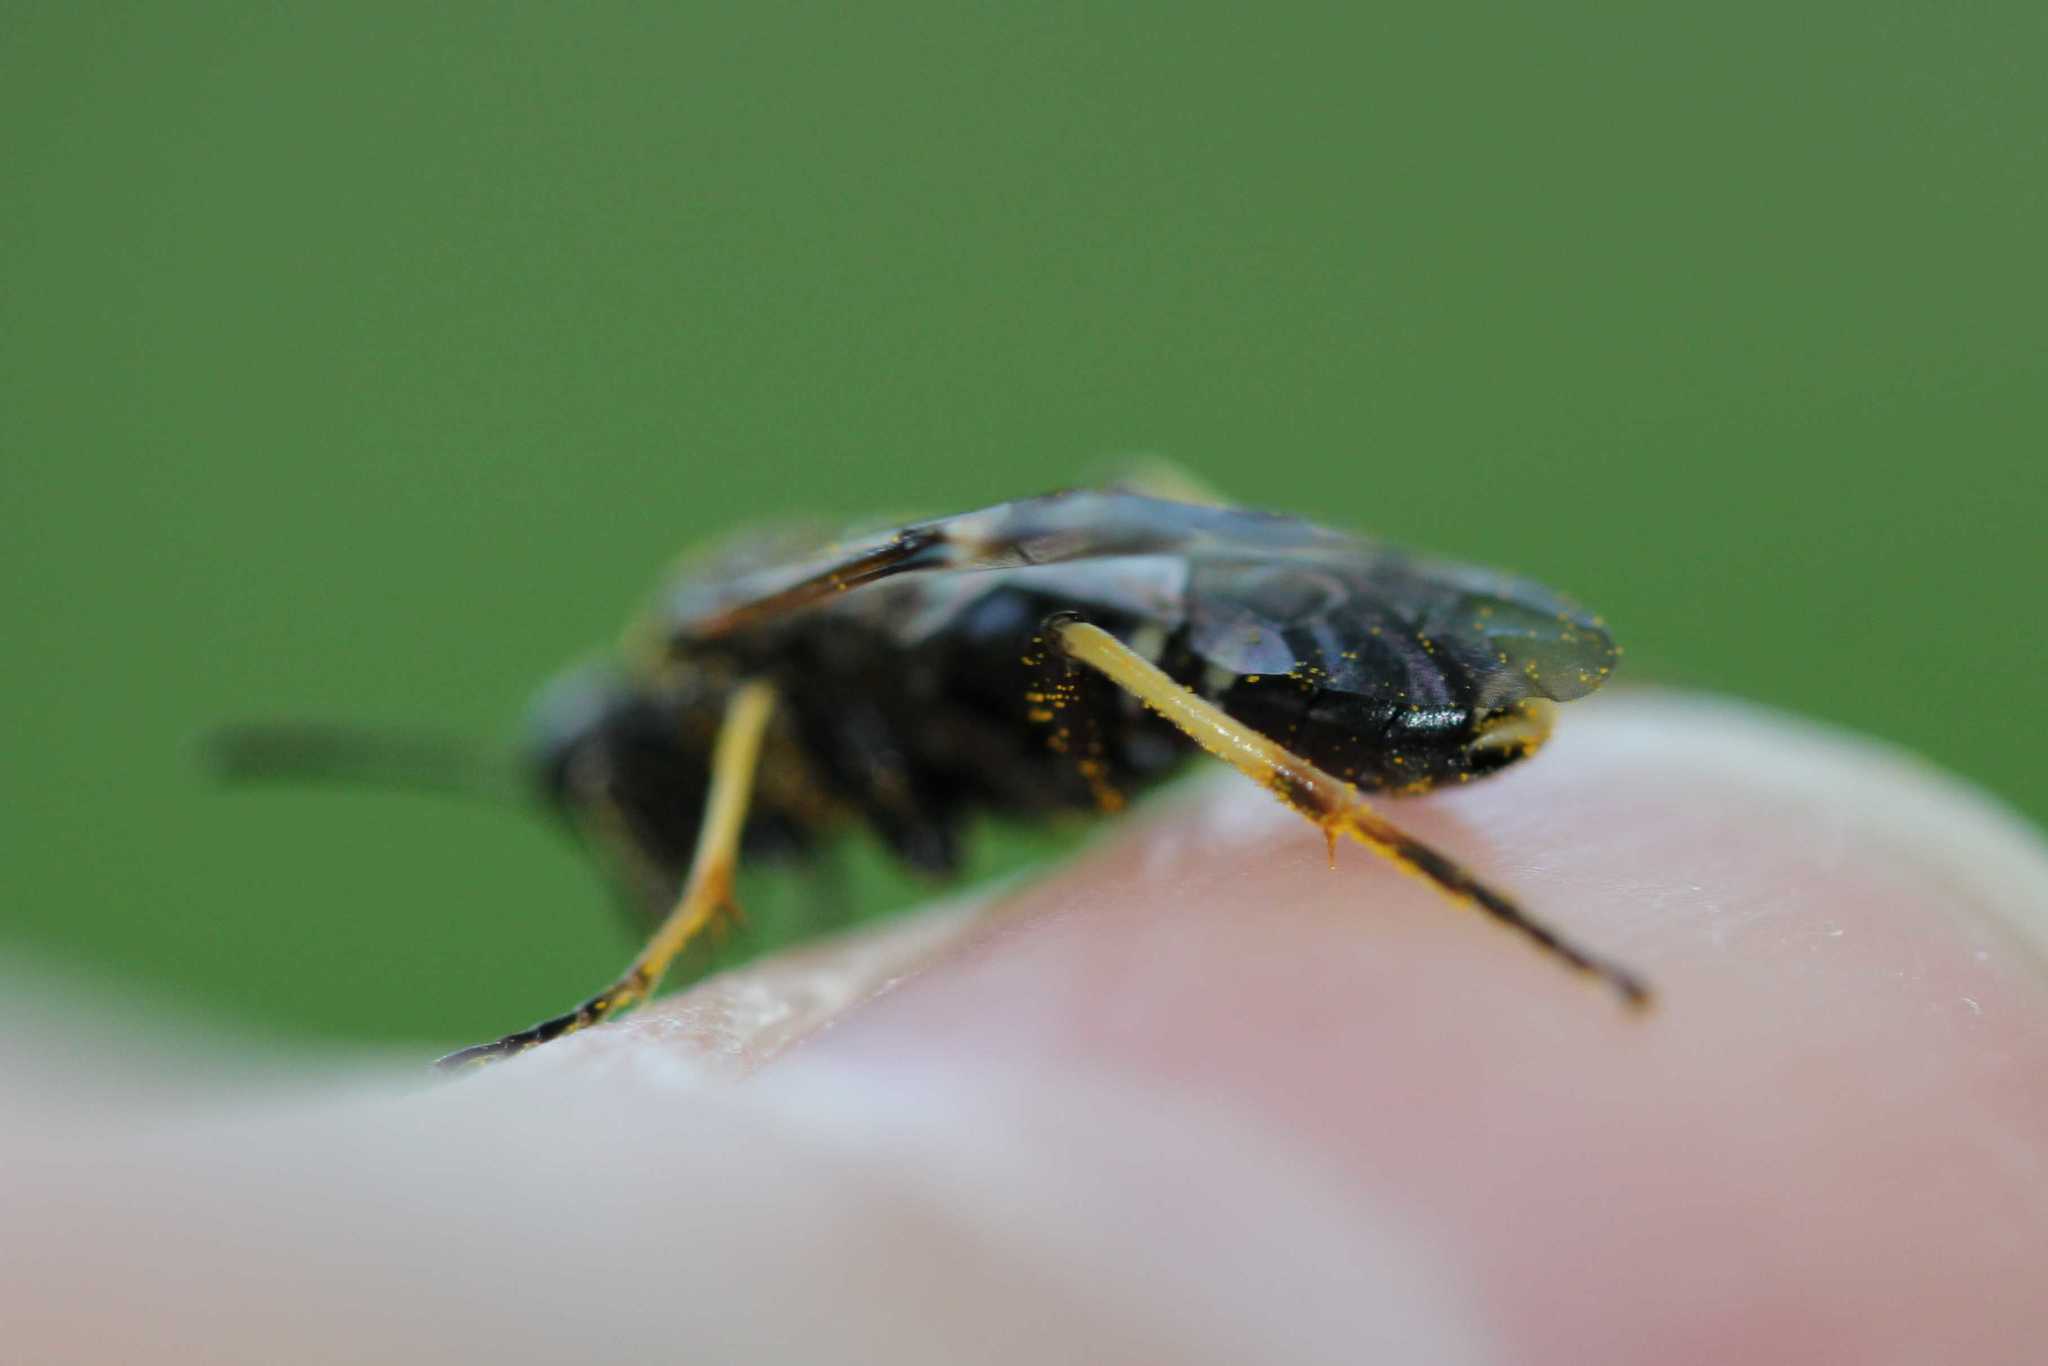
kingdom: Animalia
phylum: Arthropoda
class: Insecta
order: Hymenoptera
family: Tenthredinidae
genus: Tenthredo
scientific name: Tenthredo koehleri
